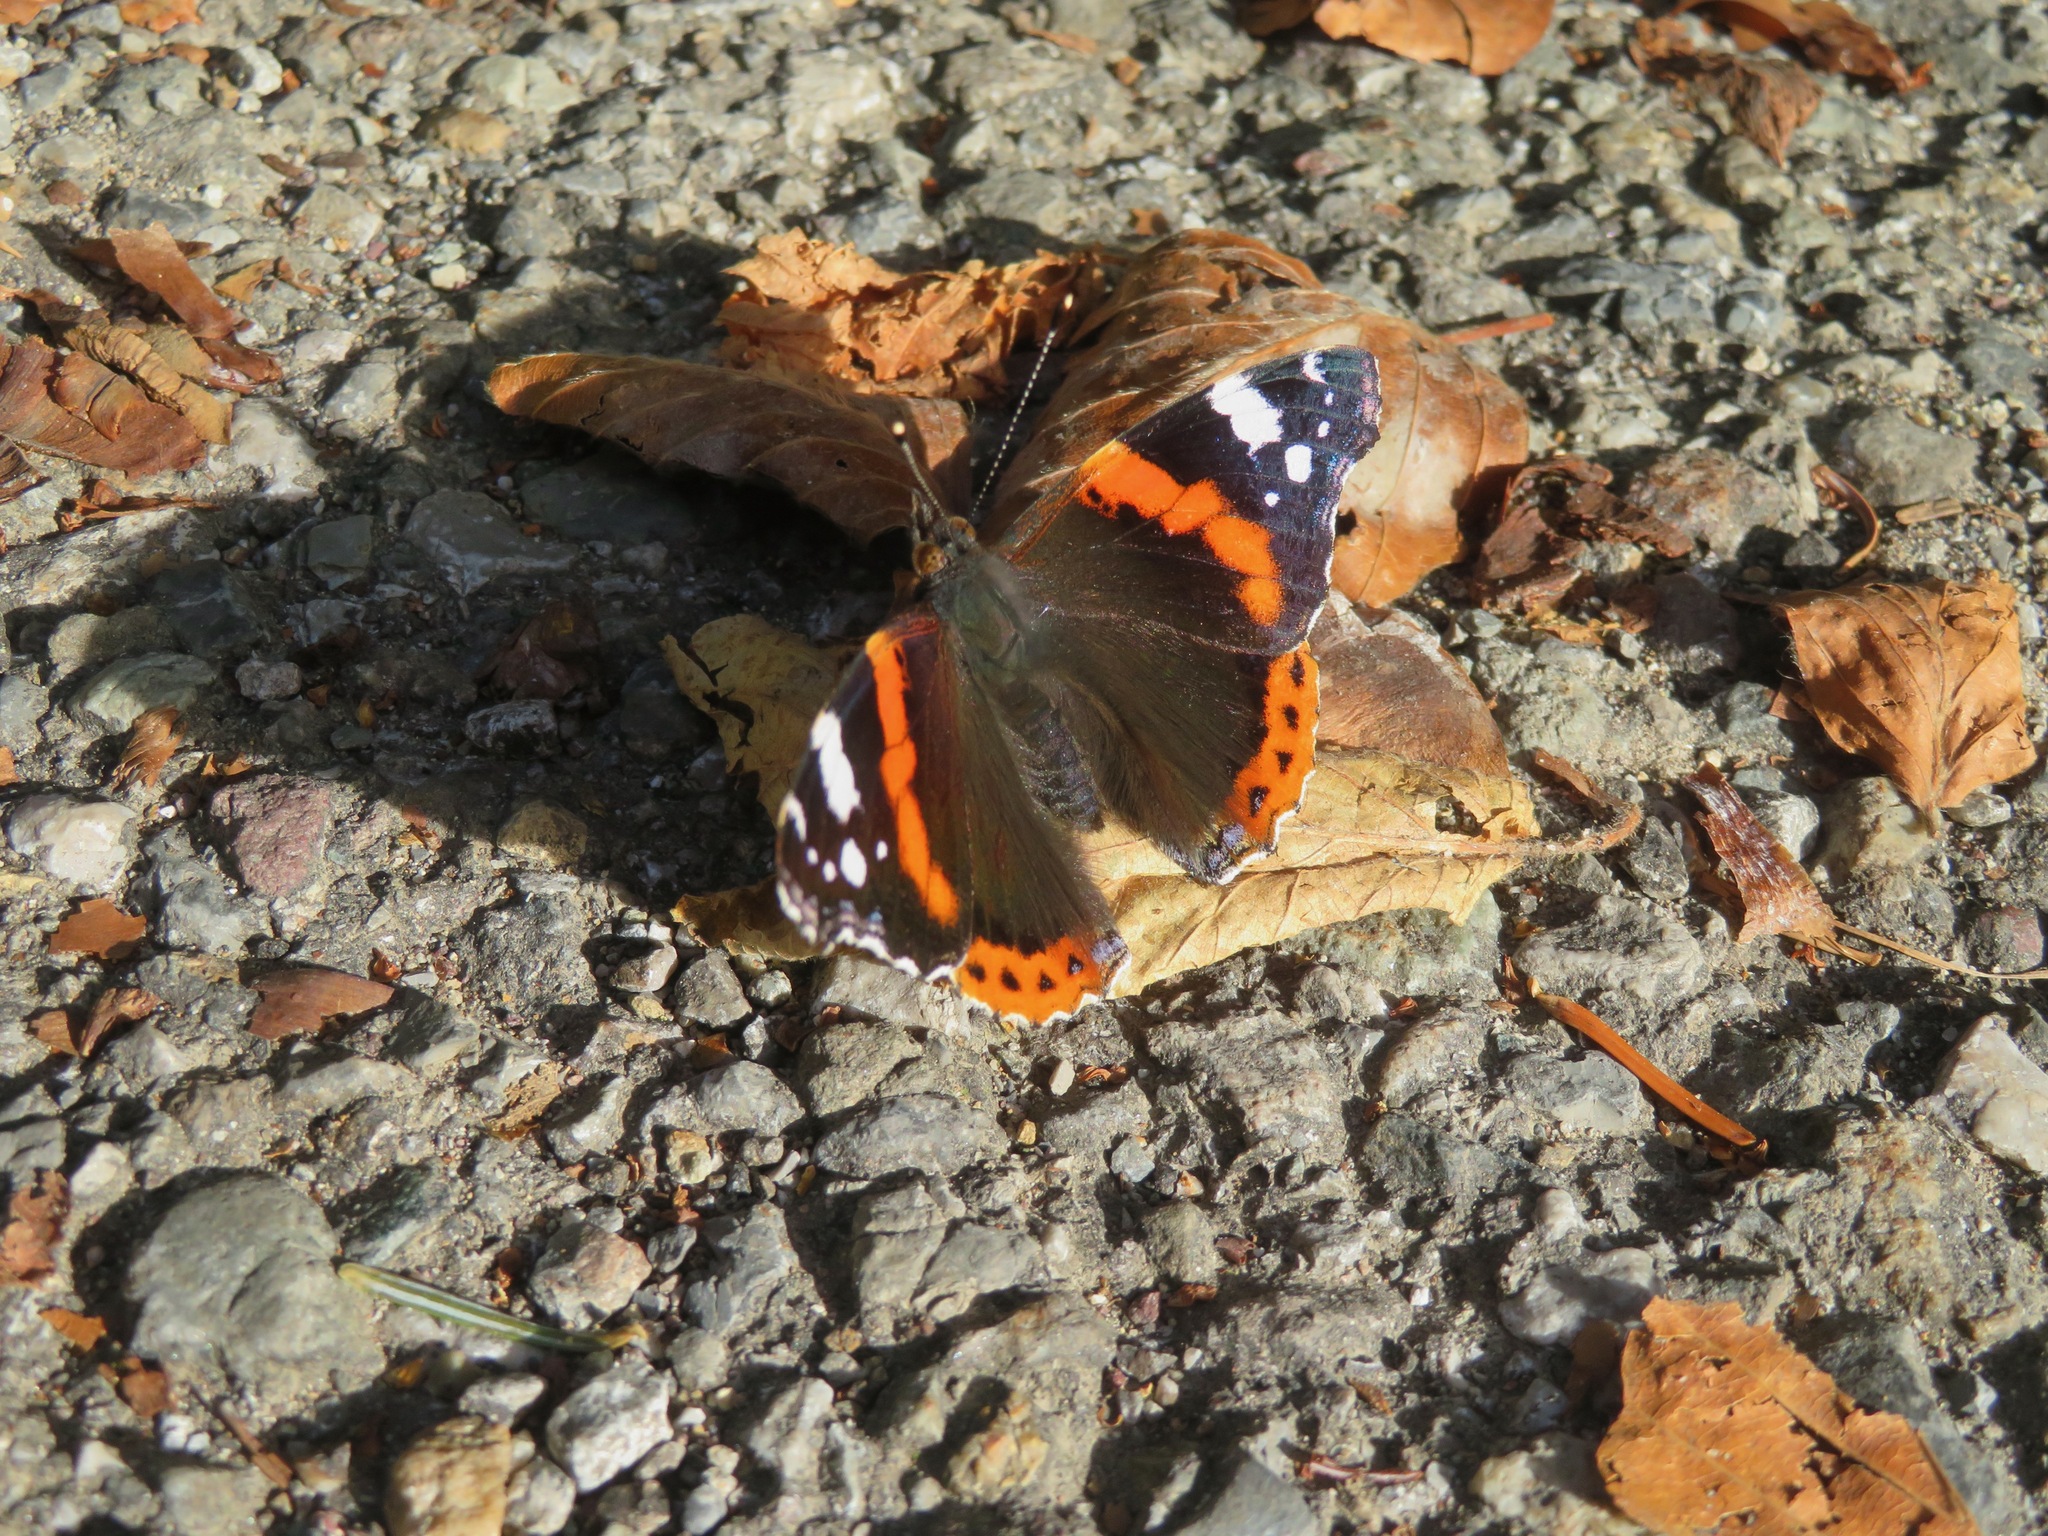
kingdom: Animalia
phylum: Arthropoda
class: Insecta
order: Lepidoptera
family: Nymphalidae
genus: Vanessa
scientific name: Vanessa atalanta
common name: Red admiral
